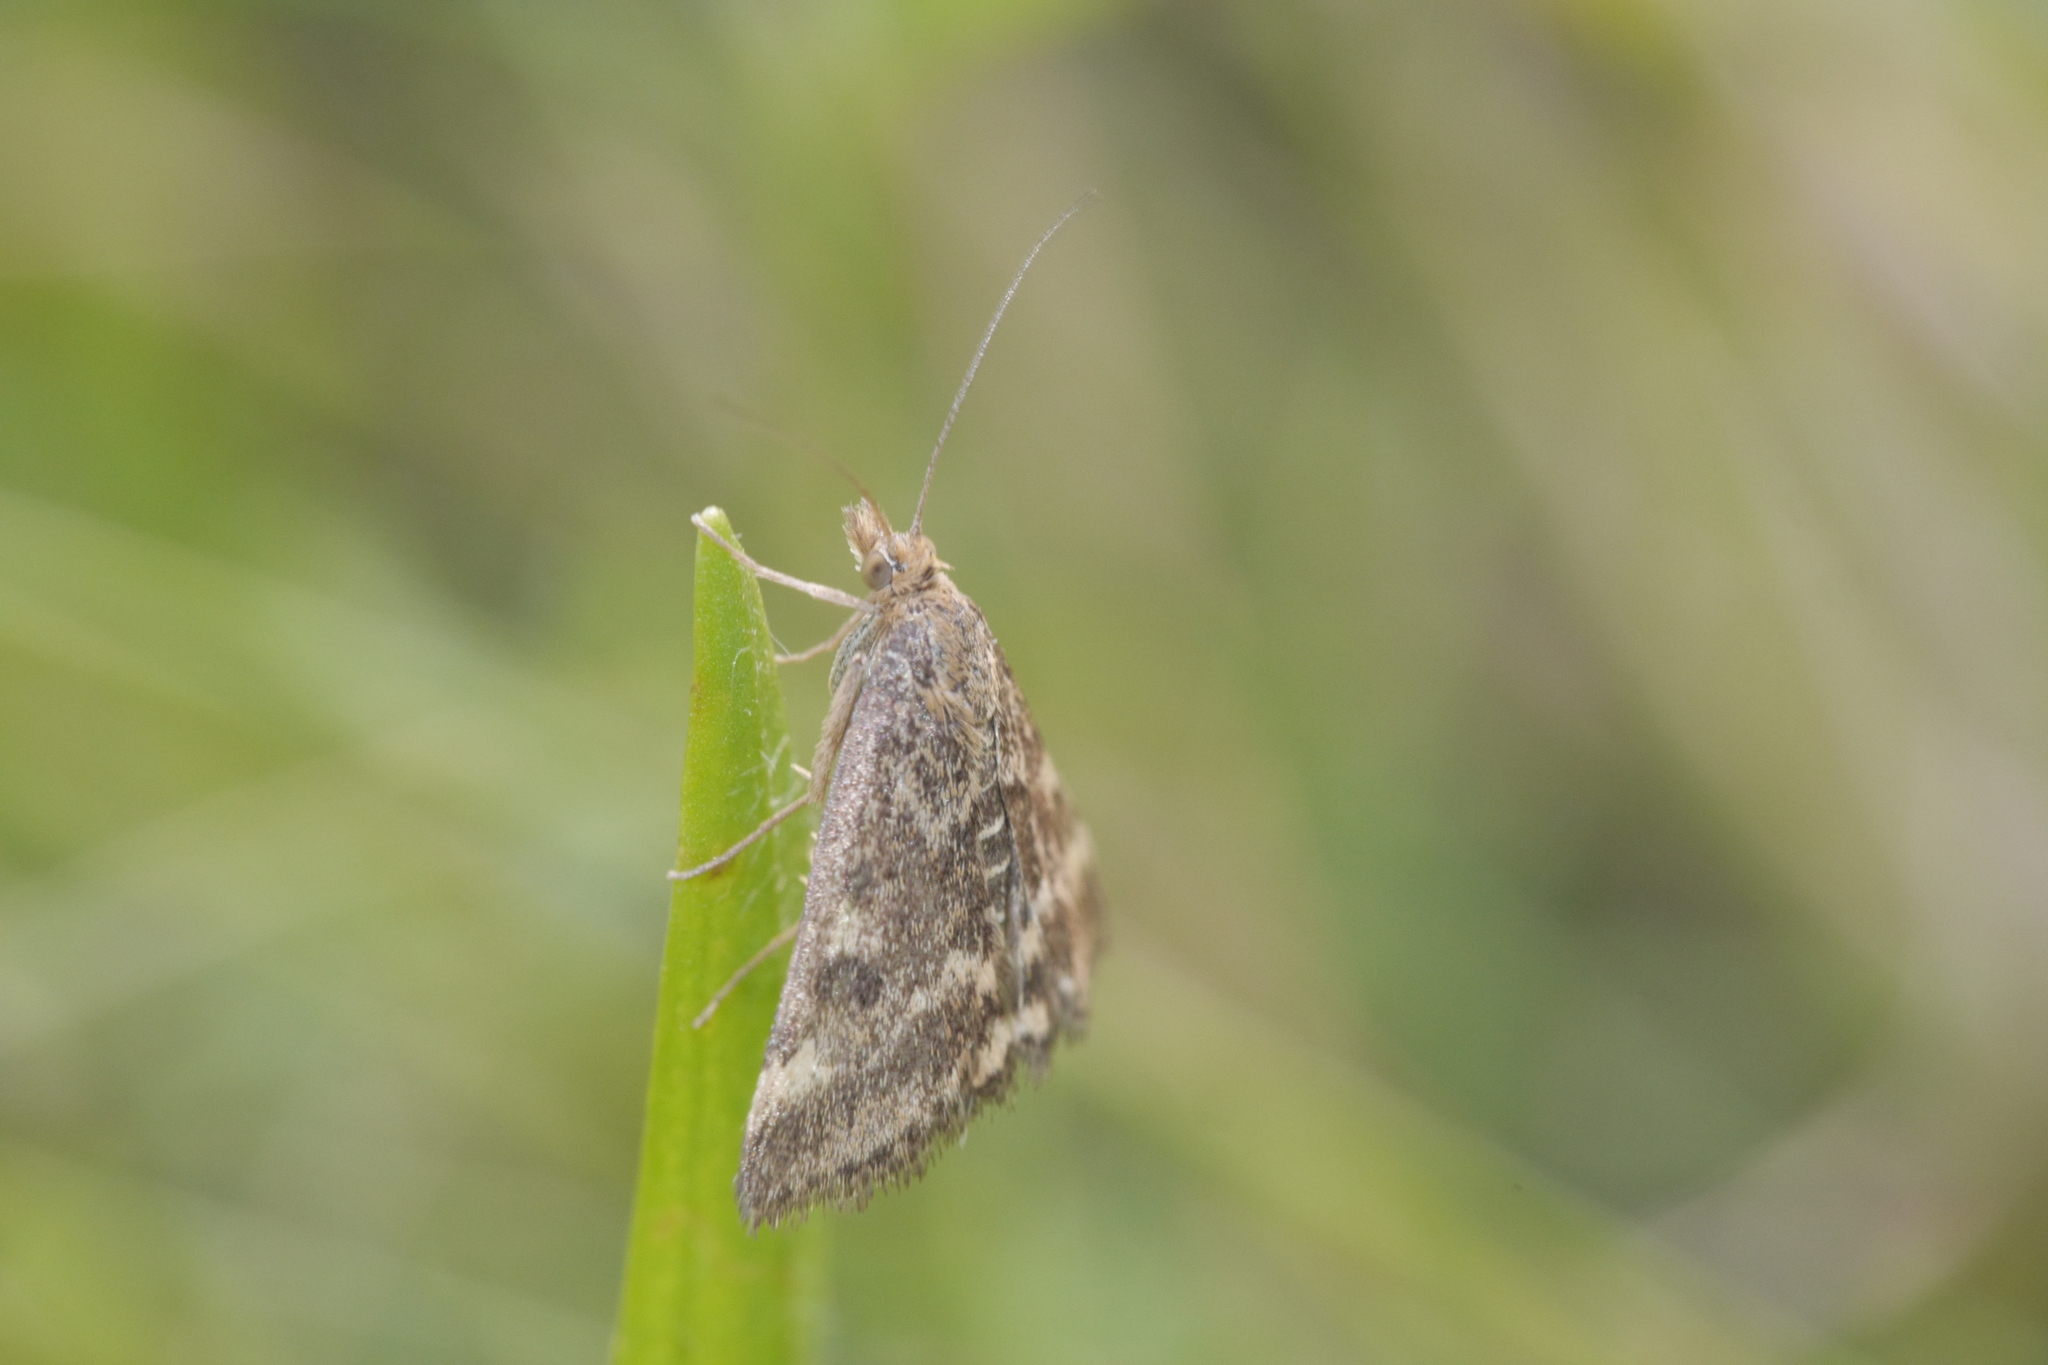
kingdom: Animalia
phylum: Arthropoda
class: Insecta
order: Lepidoptera
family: Crambidae
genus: Pyrausta
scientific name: Pyrausta despicata
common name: Straw-barred pearl
